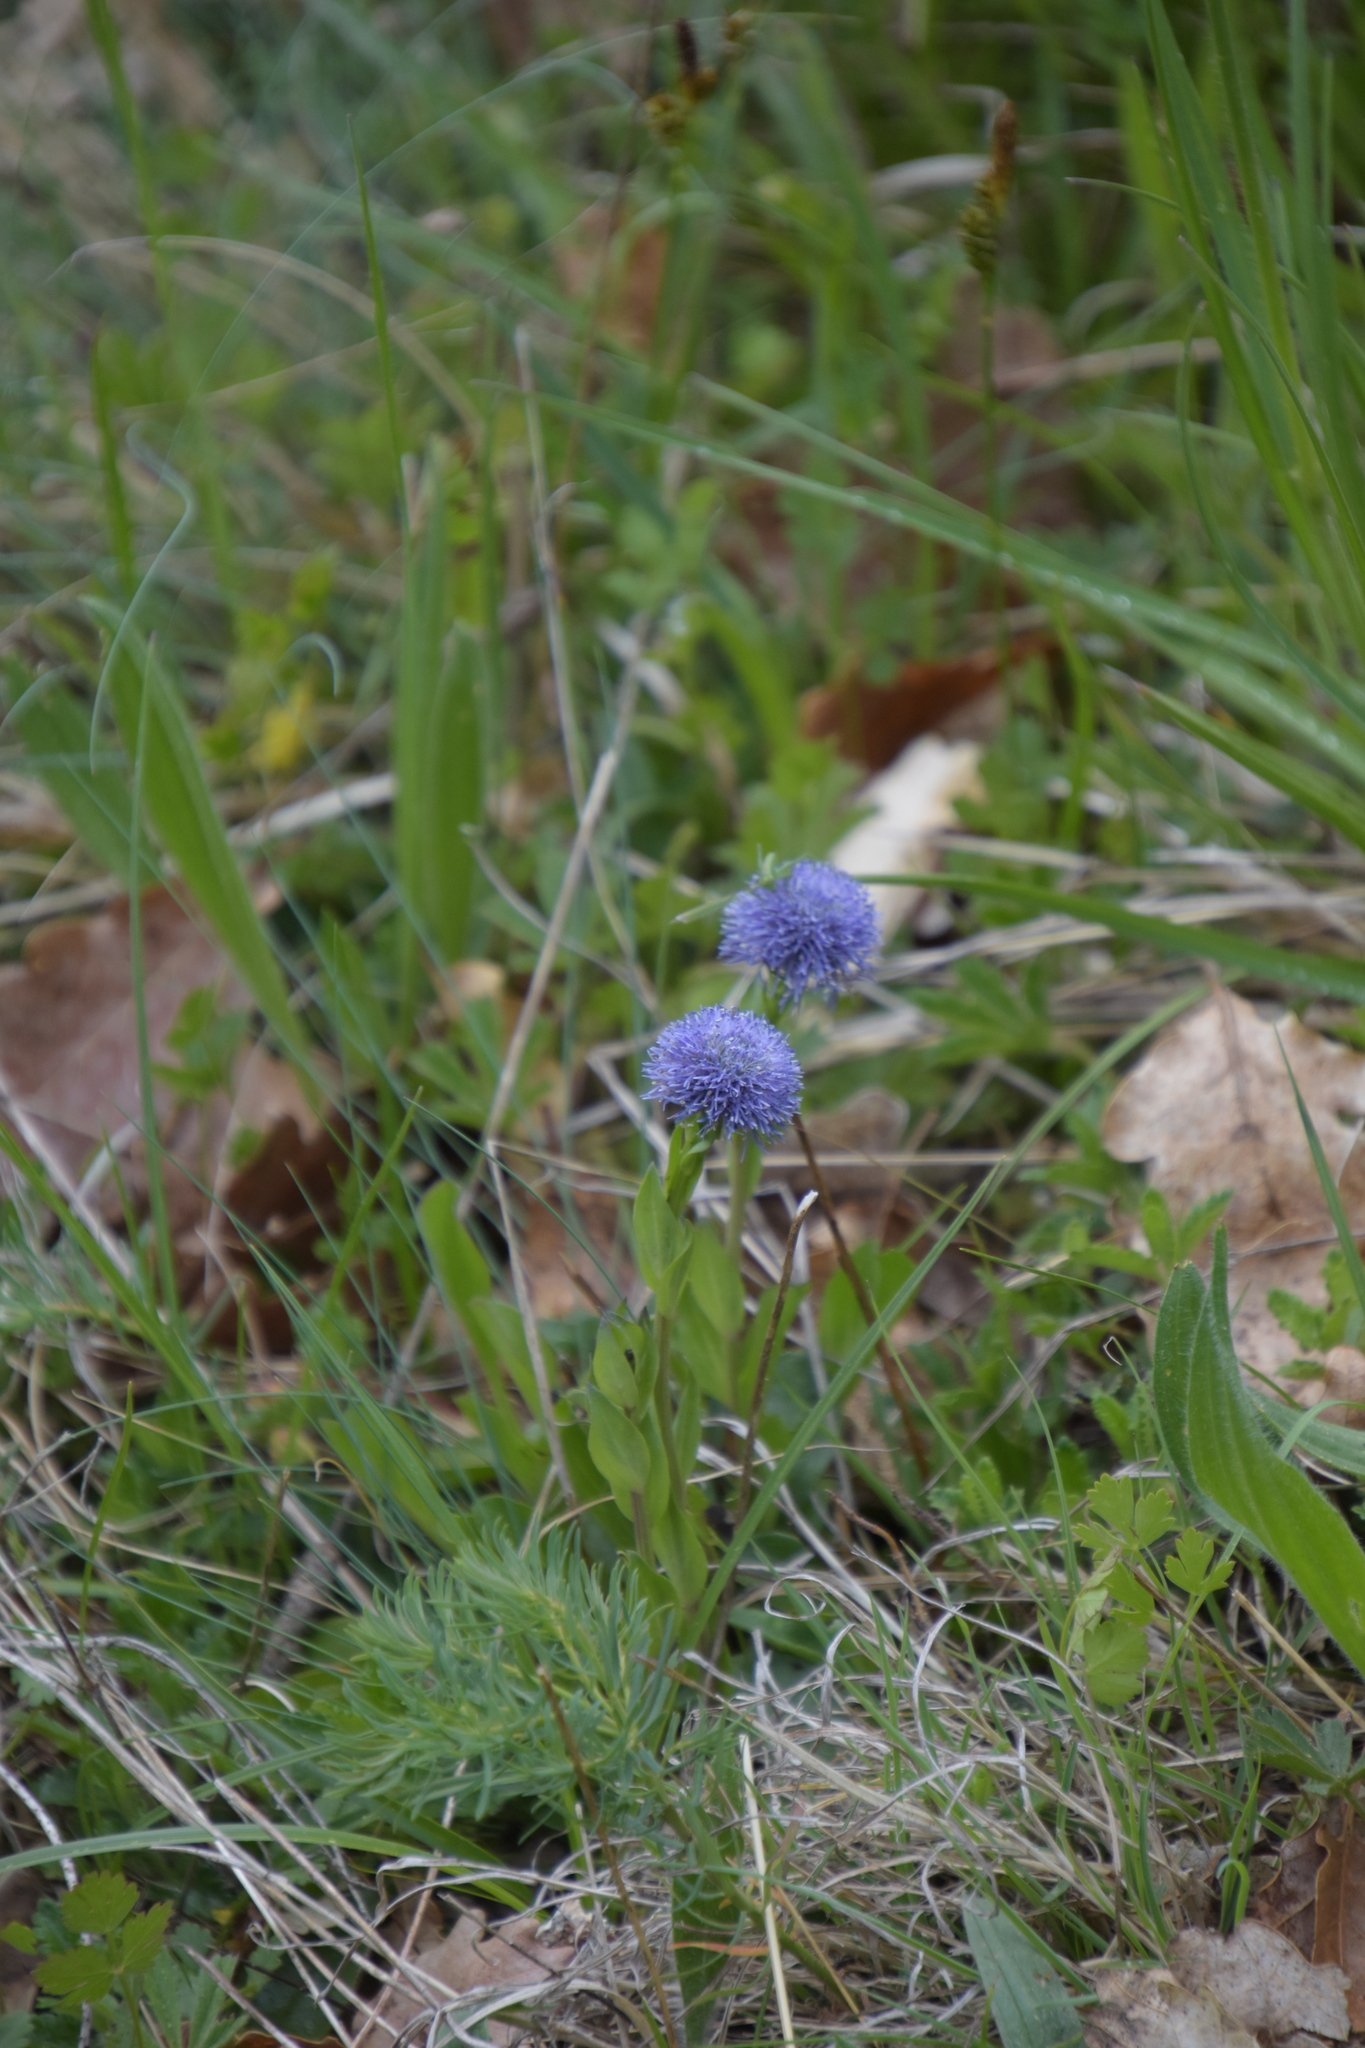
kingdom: Plantae
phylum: Tracheophyta
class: Magnoliopsida
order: Lamiales
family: Plantaginaceae
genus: Globularia
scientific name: Globularia bisnagarica
